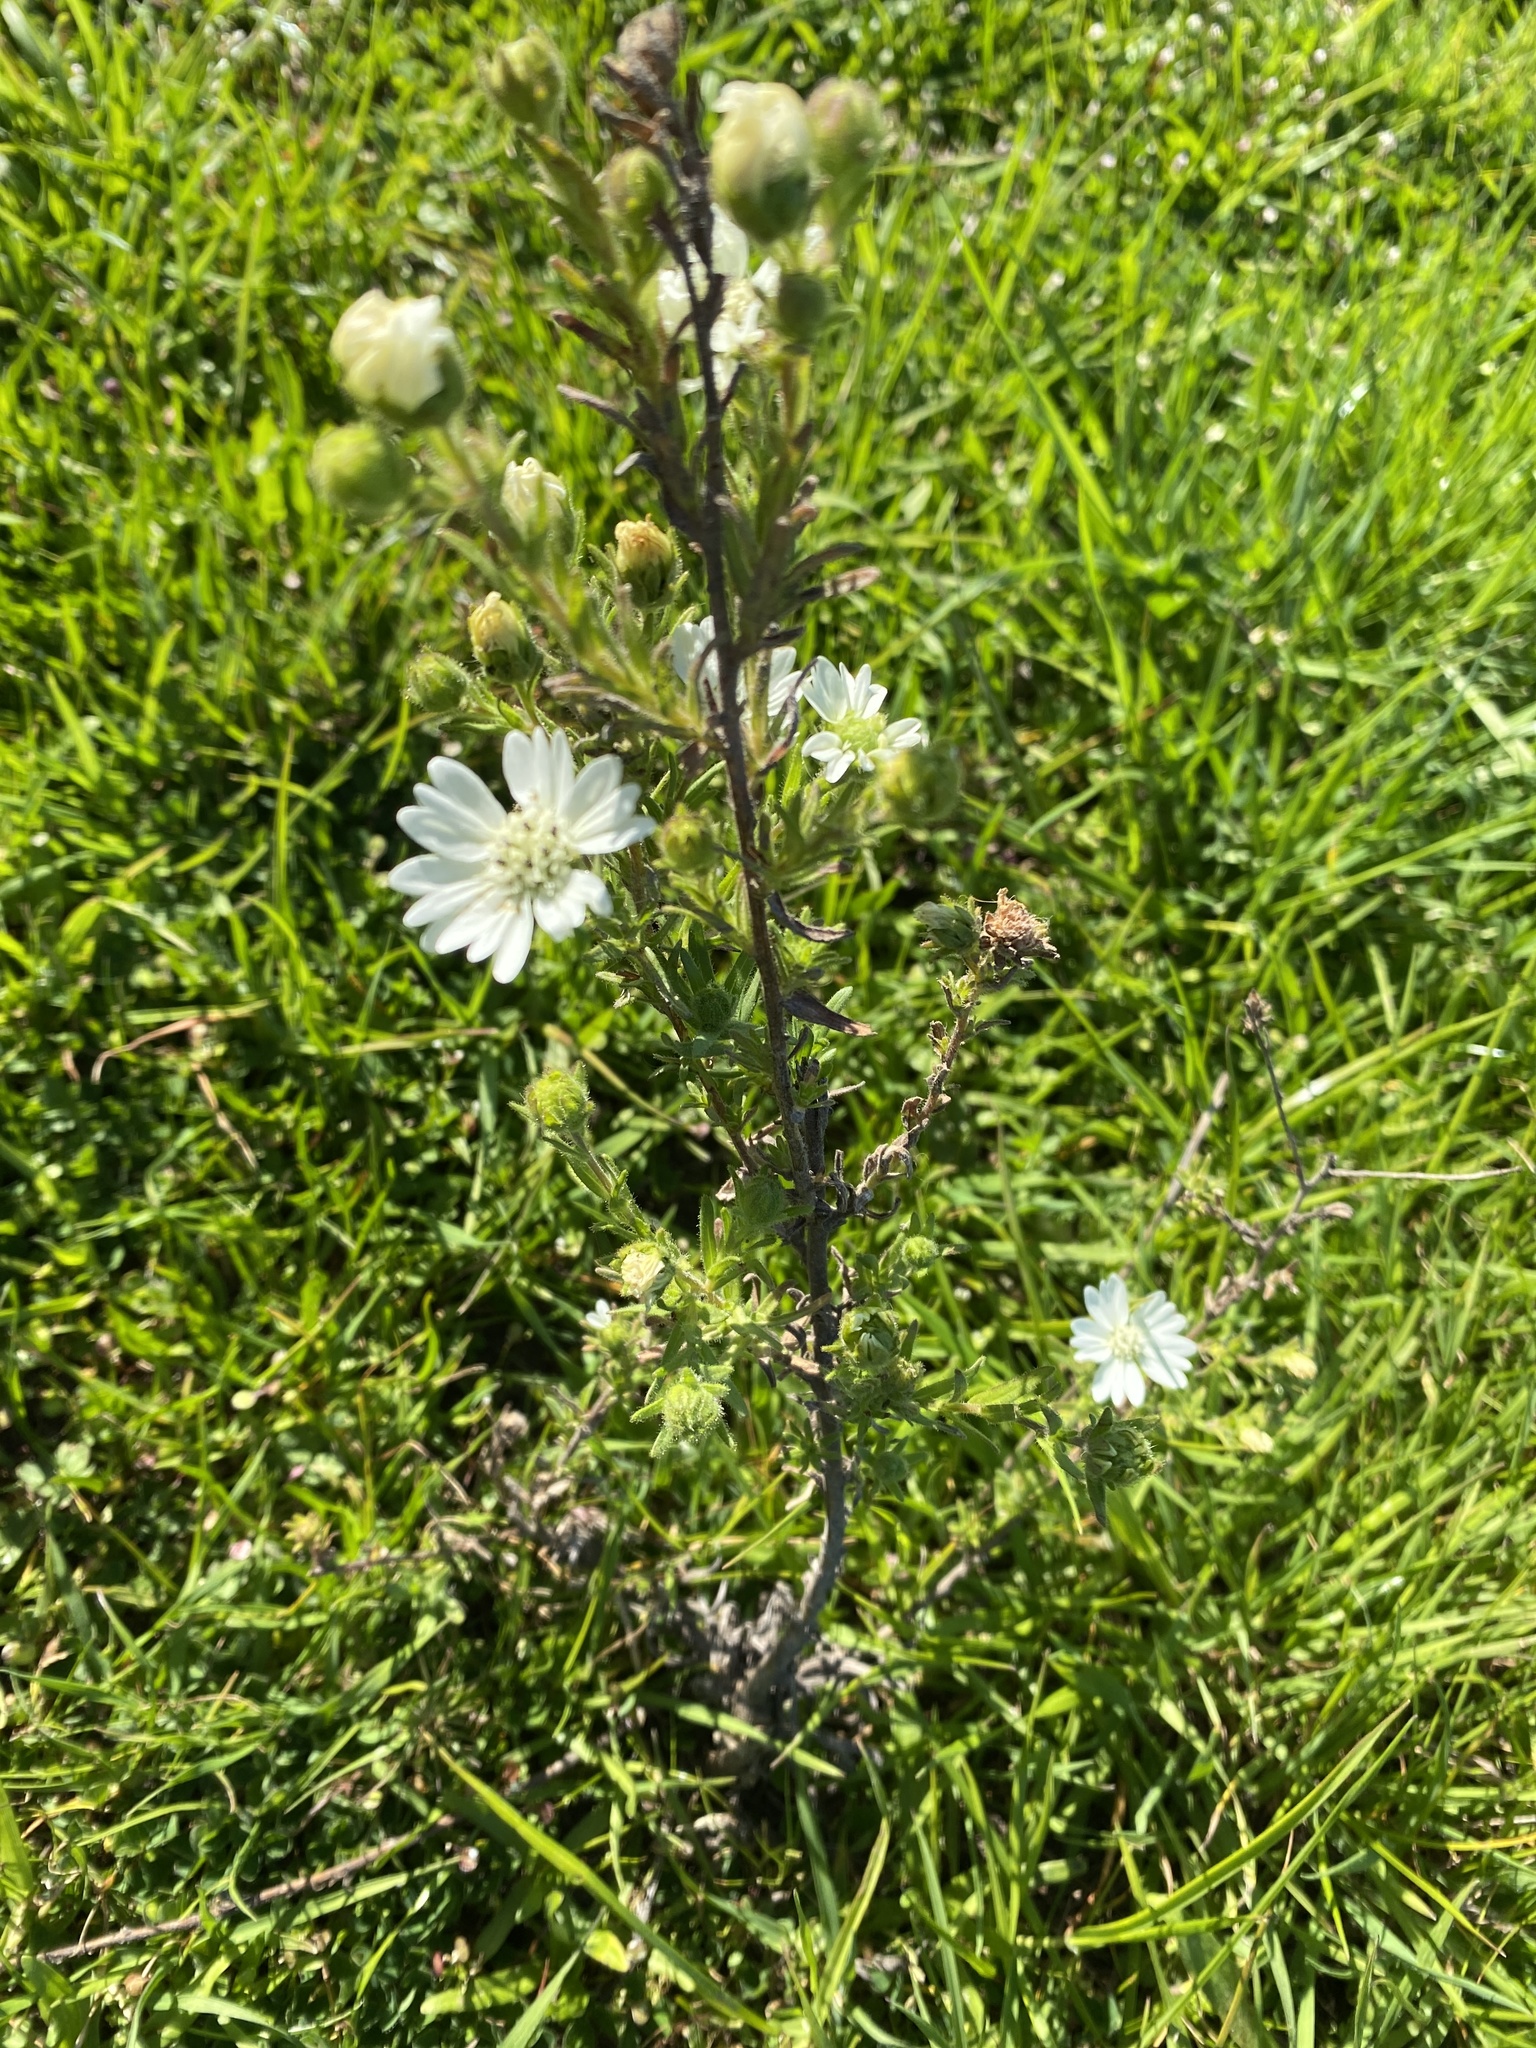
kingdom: Plantae
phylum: Tracheophyta
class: Magnoliopsida
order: Asterales
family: Asteraceae
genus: Hemizonia
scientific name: Hemizonia congesta
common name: Hayfield tarweed
